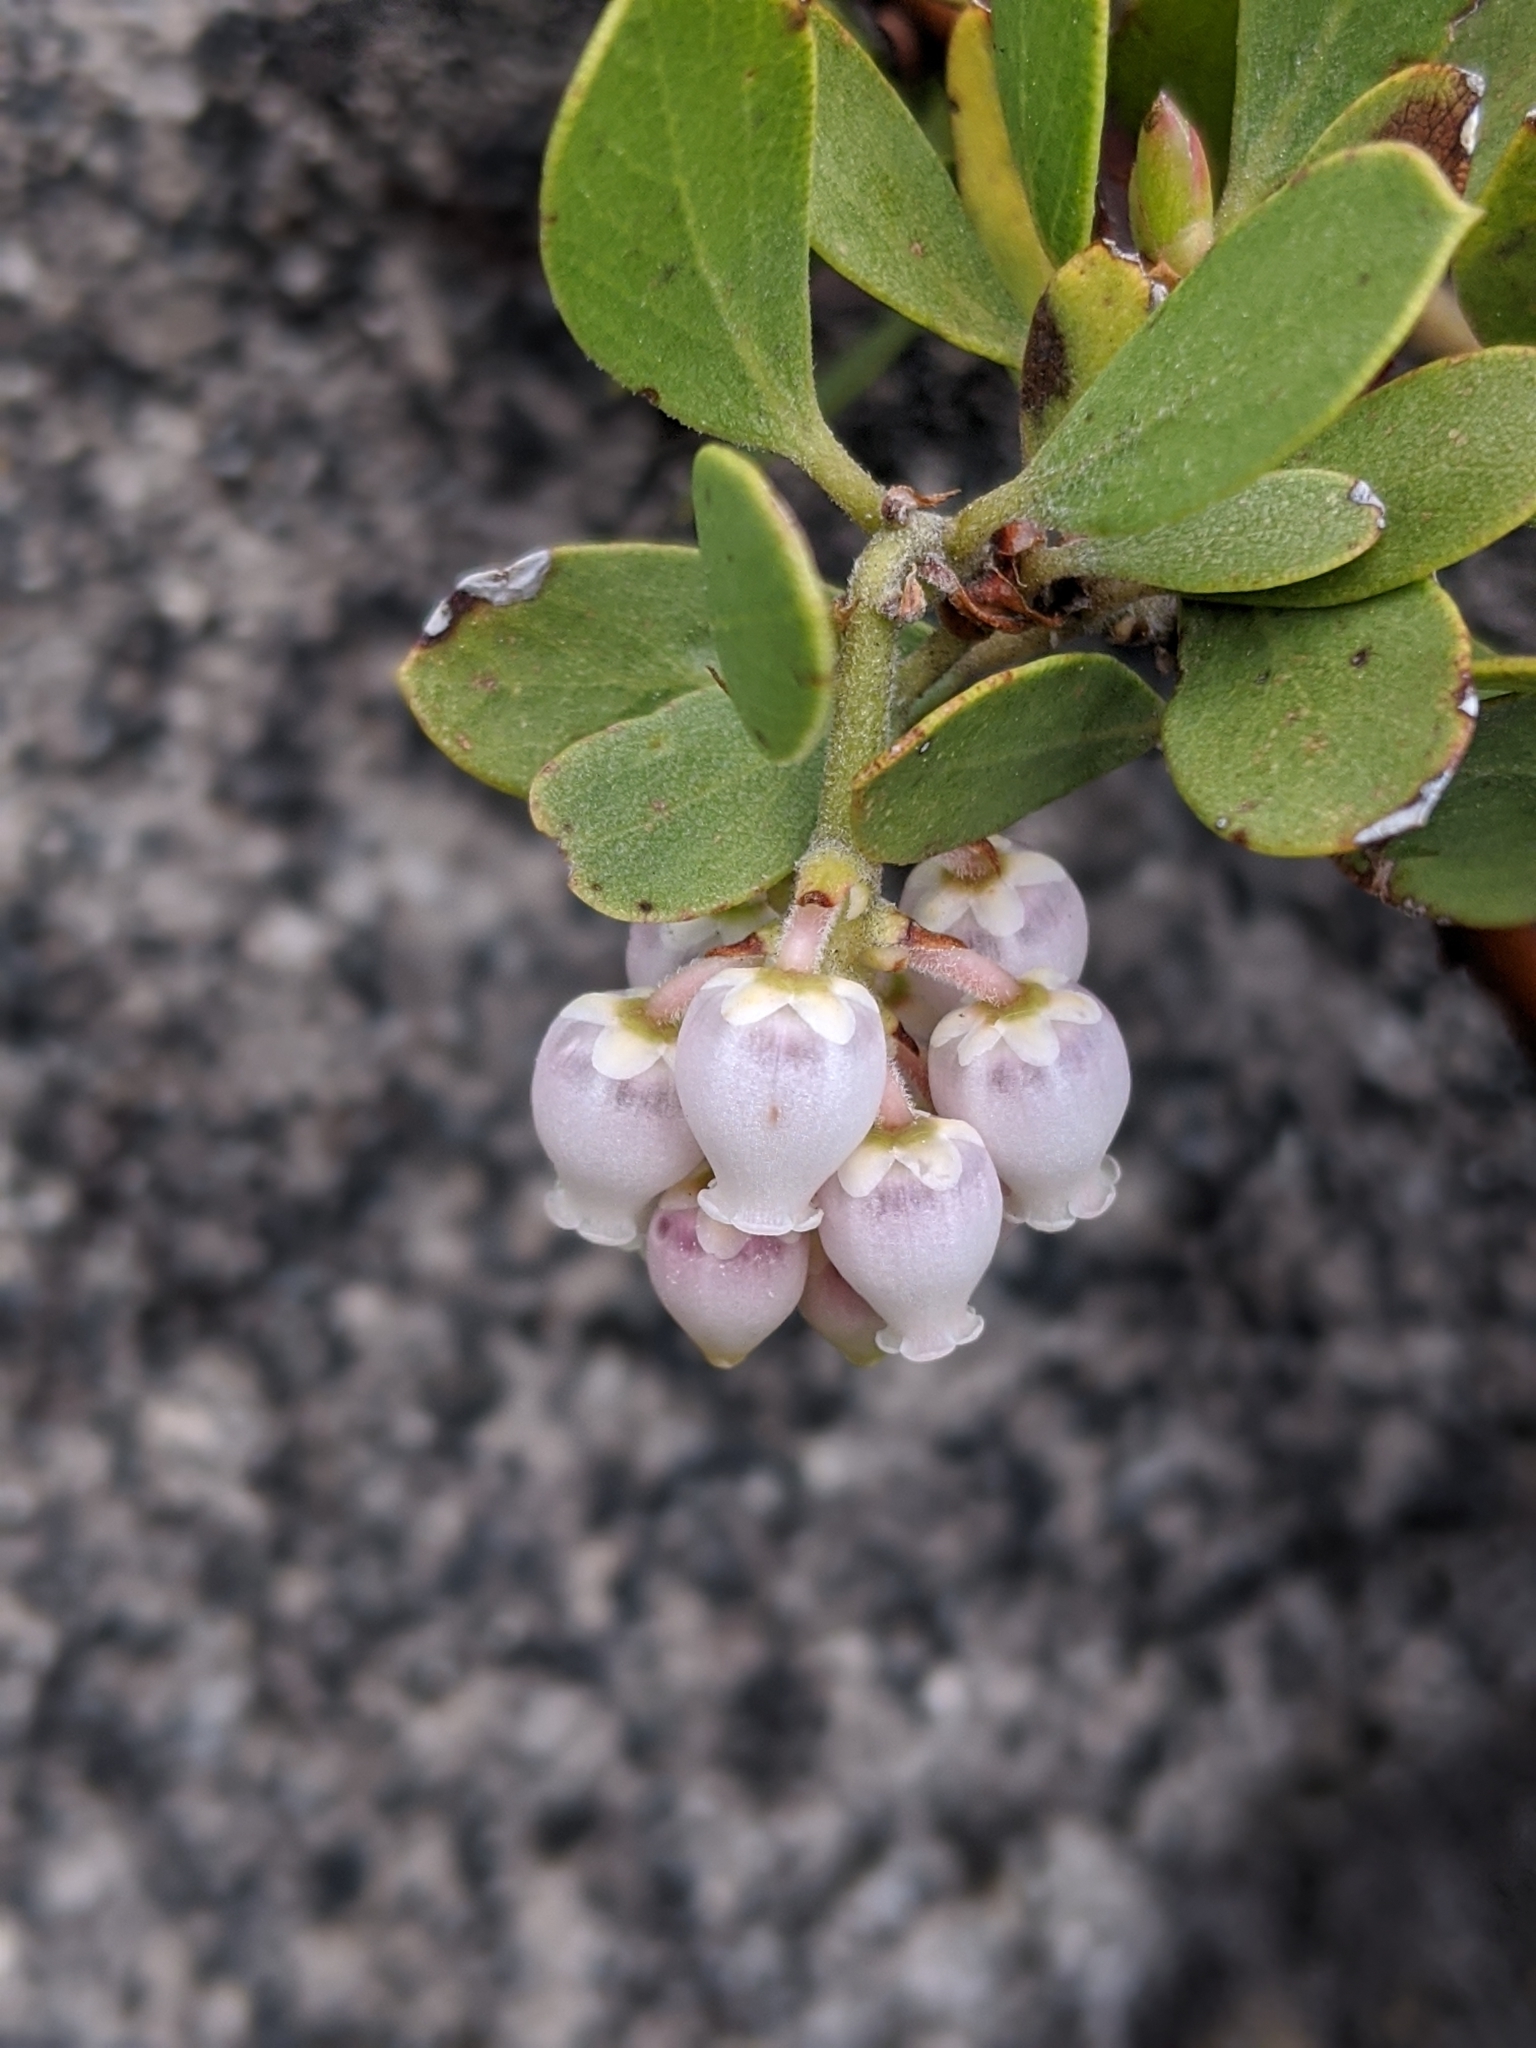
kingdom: Plantae
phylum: Tracheophyta
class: Magnoliopsida
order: Ericales
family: Ericaceae
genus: Arctostaphylos
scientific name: Arctostaphylos nevadensis
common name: Pinemat manzanita
